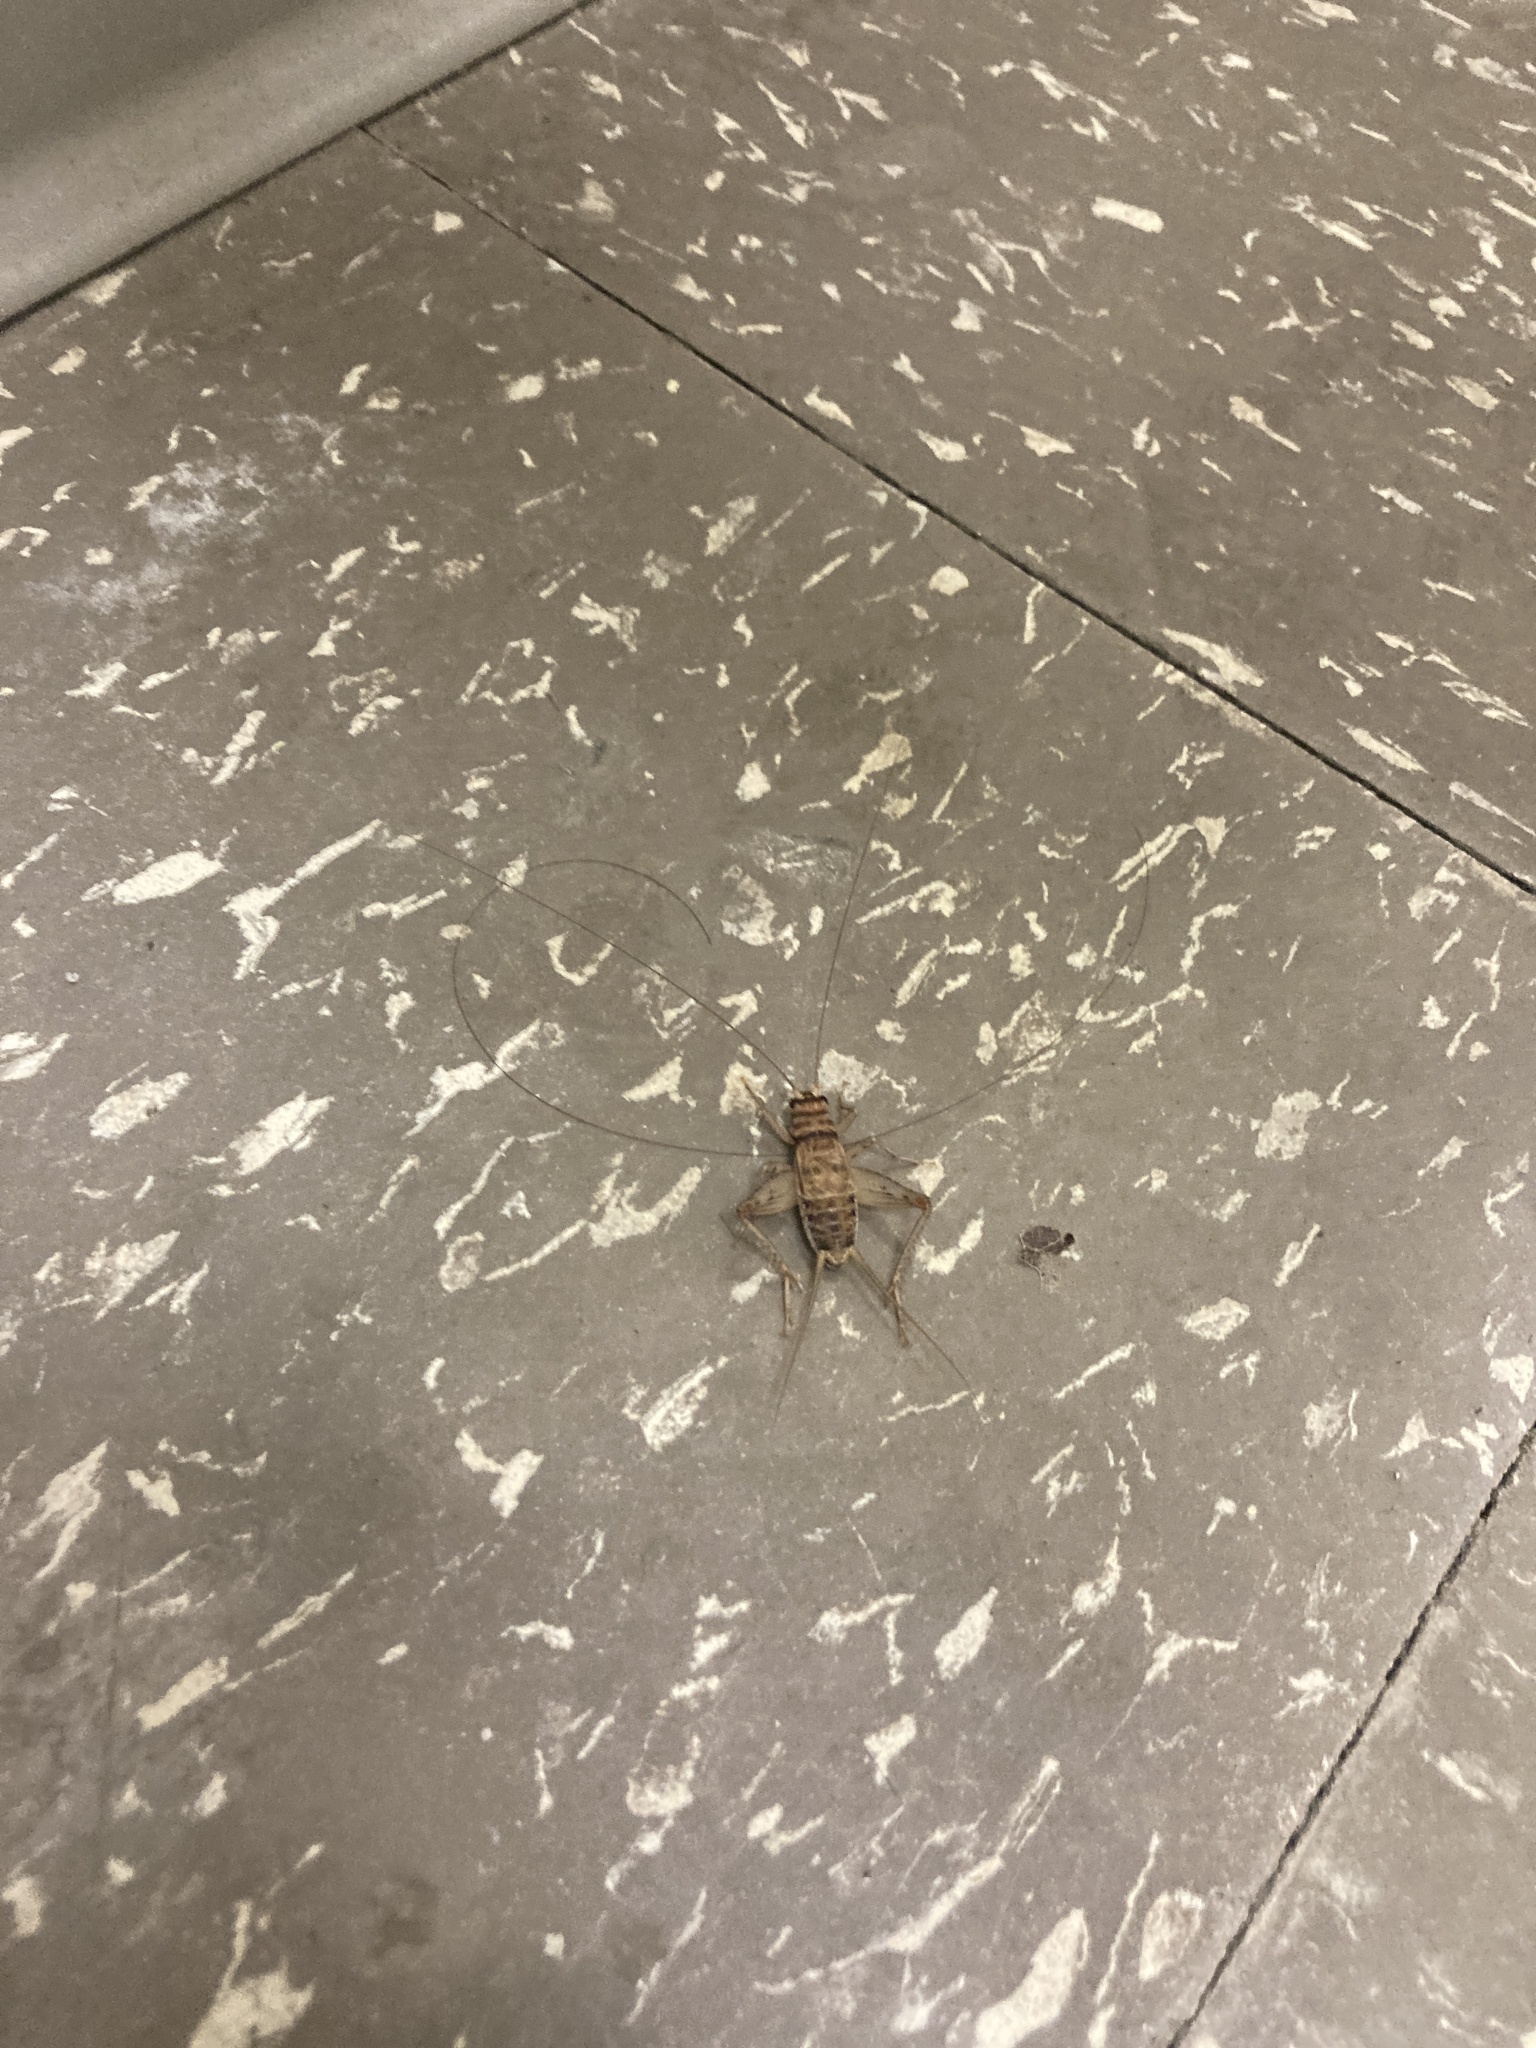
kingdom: Animalia
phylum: Arthropoda
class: Insecta
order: Orthoptera
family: Gryllidae
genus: Gryllodes
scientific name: Gryllodes sigillatus
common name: Tropical house cricket
